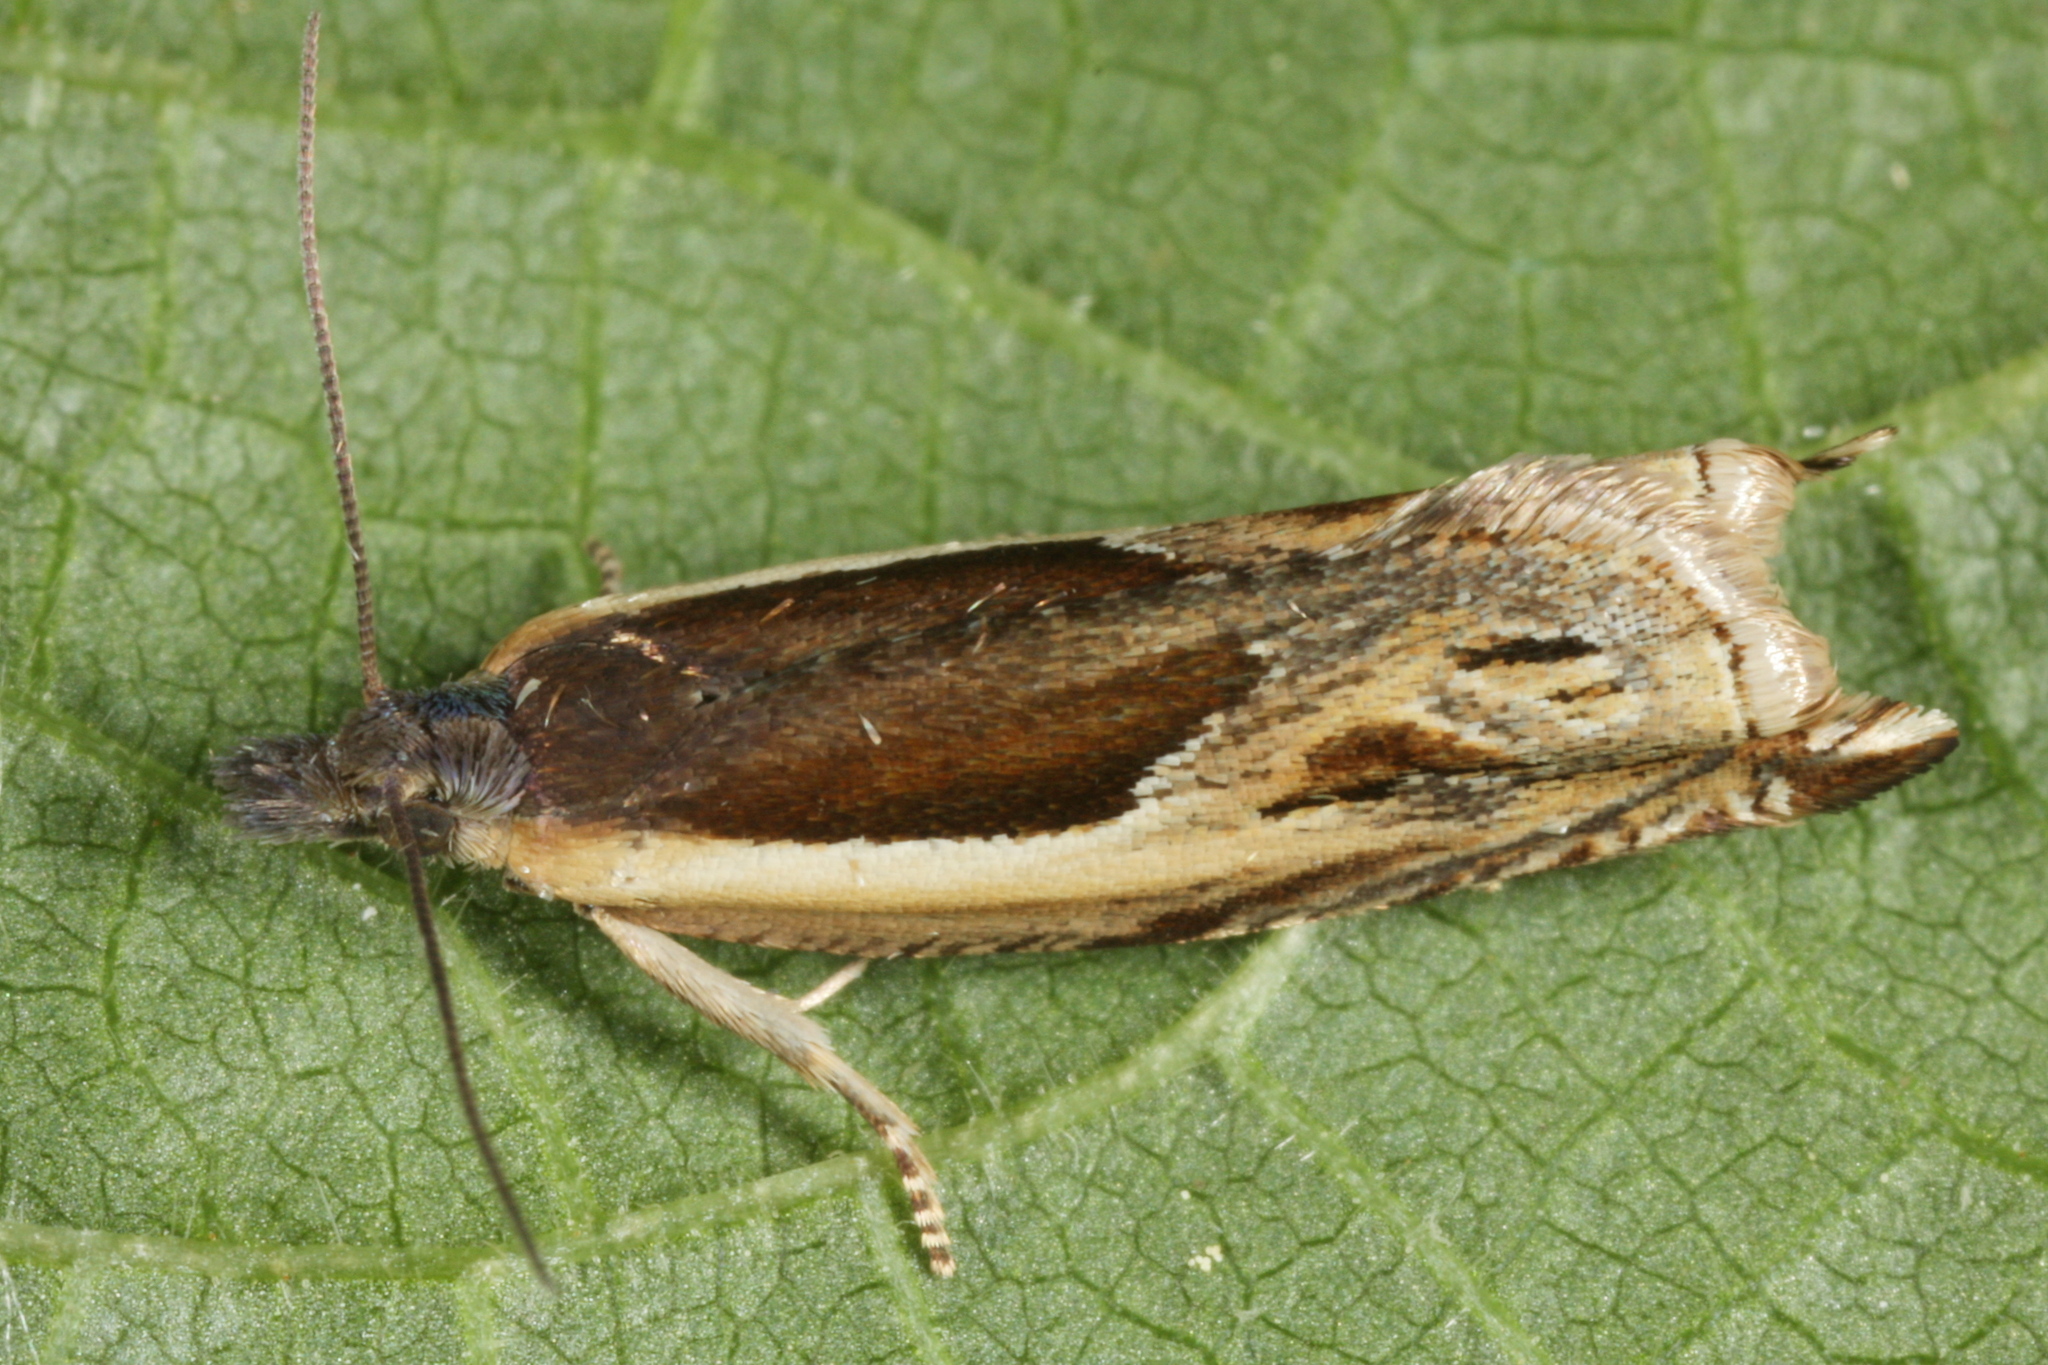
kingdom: Animalia
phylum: Arthropoda
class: Insecta
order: Lepidoptera
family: Tortricidae
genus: Ancylis
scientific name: Ancylis apicella
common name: Hook-tipped roller
